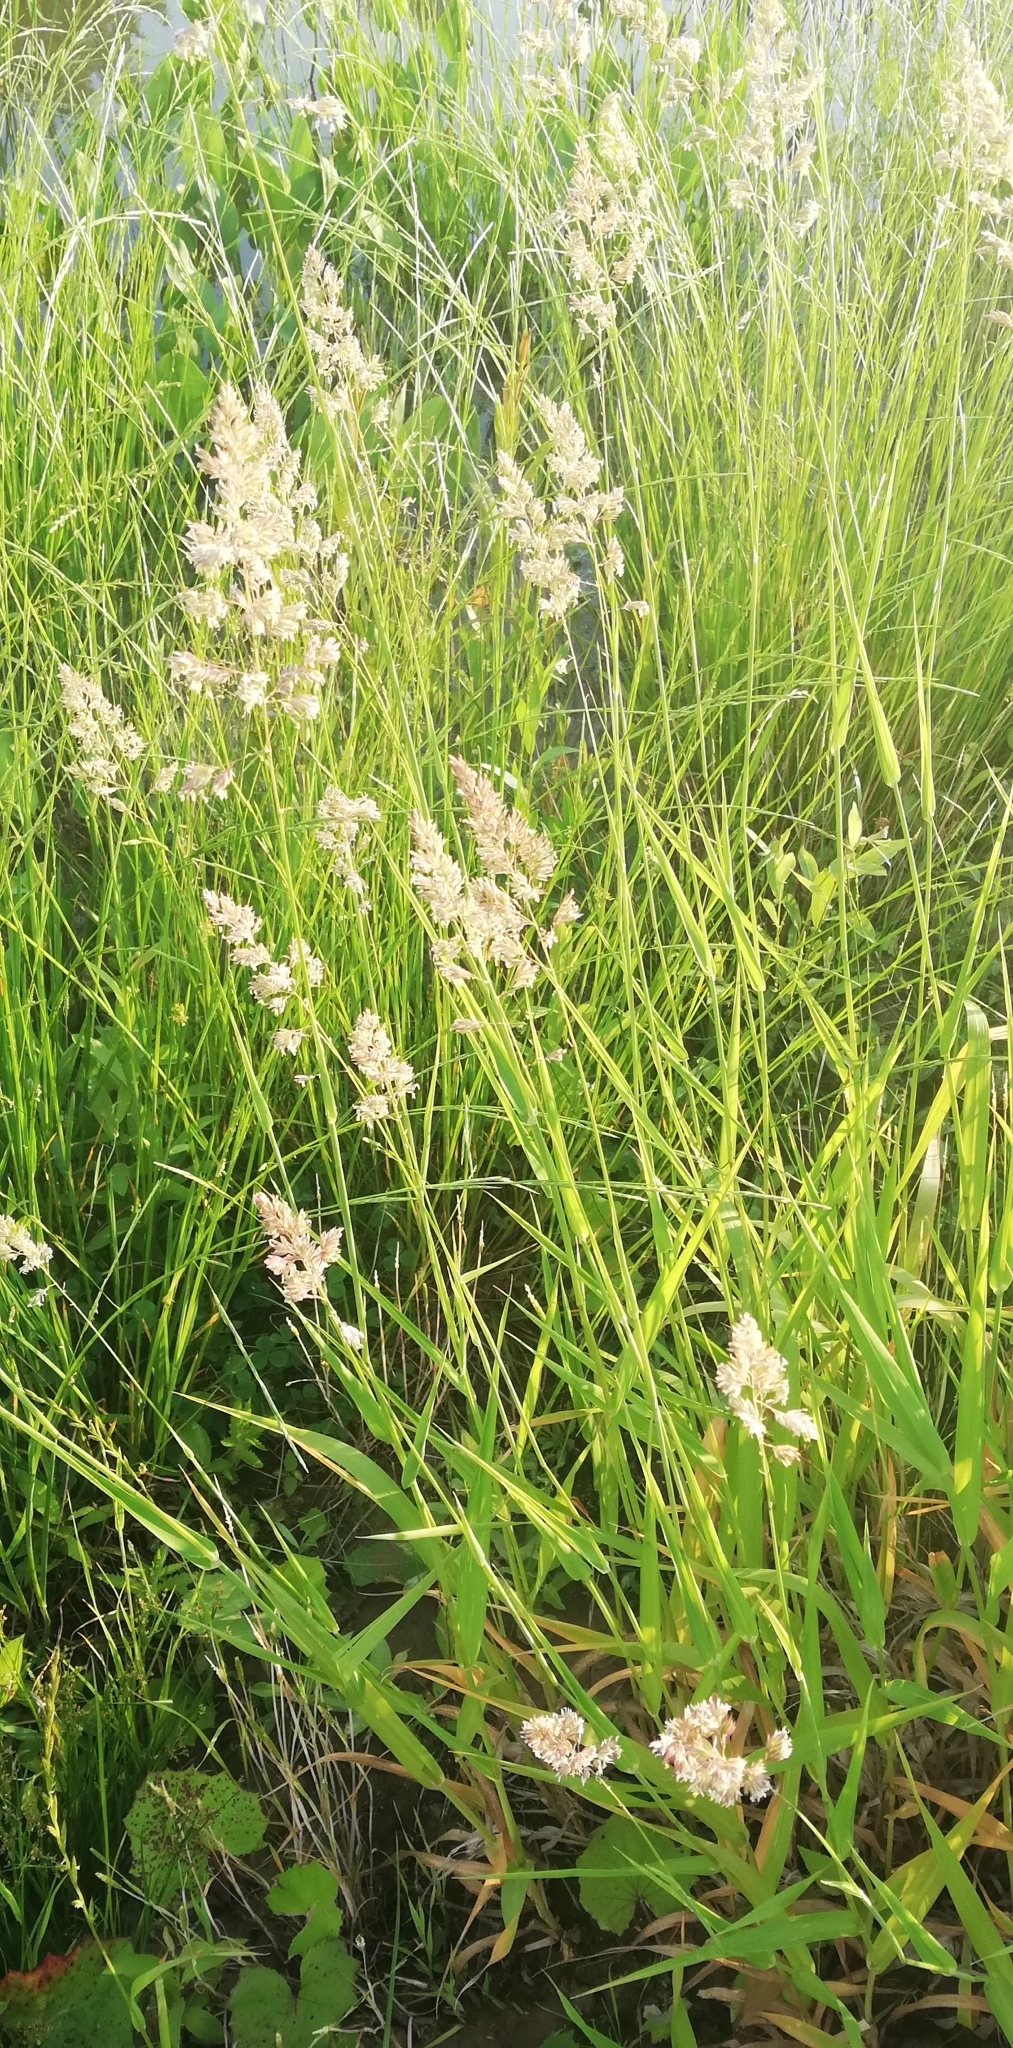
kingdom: Plantae
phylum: Tracheophyta
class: Liliopsida
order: Poales
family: Poaceae
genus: Phalaris
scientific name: Phalaris arundinacea
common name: Reed canary-grass
